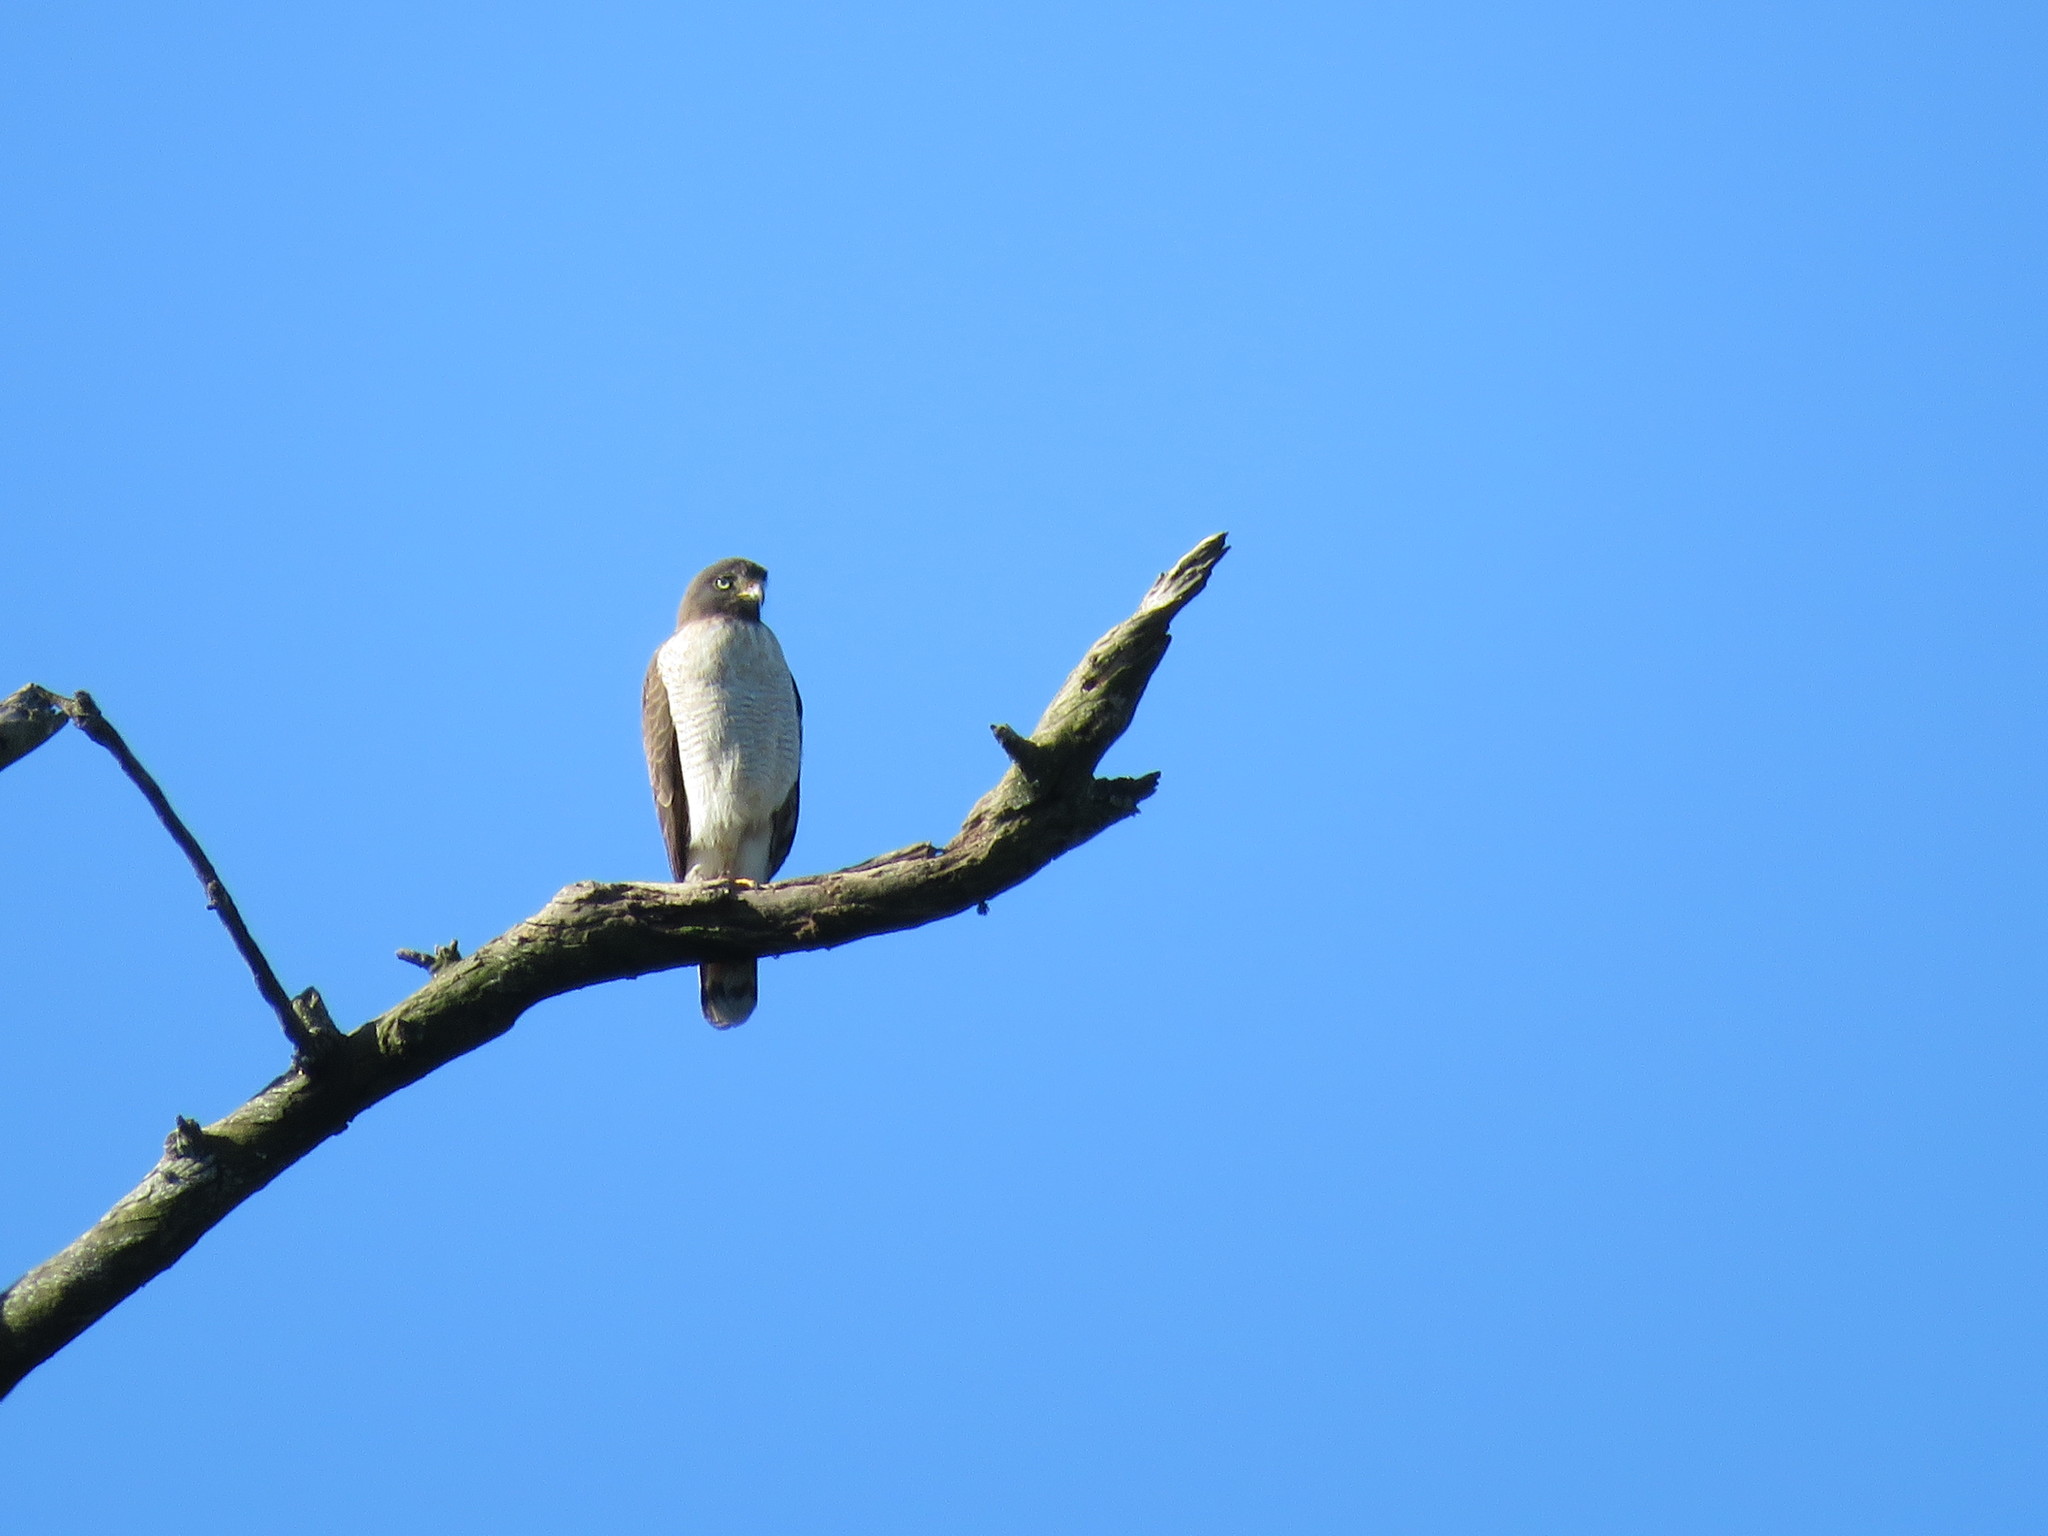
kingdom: Animalia
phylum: Chordata
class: Aves
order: Accipitriformes
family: Accipitridae
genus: Rupornis
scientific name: Rupornis magnirostris
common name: Roadside hawk
